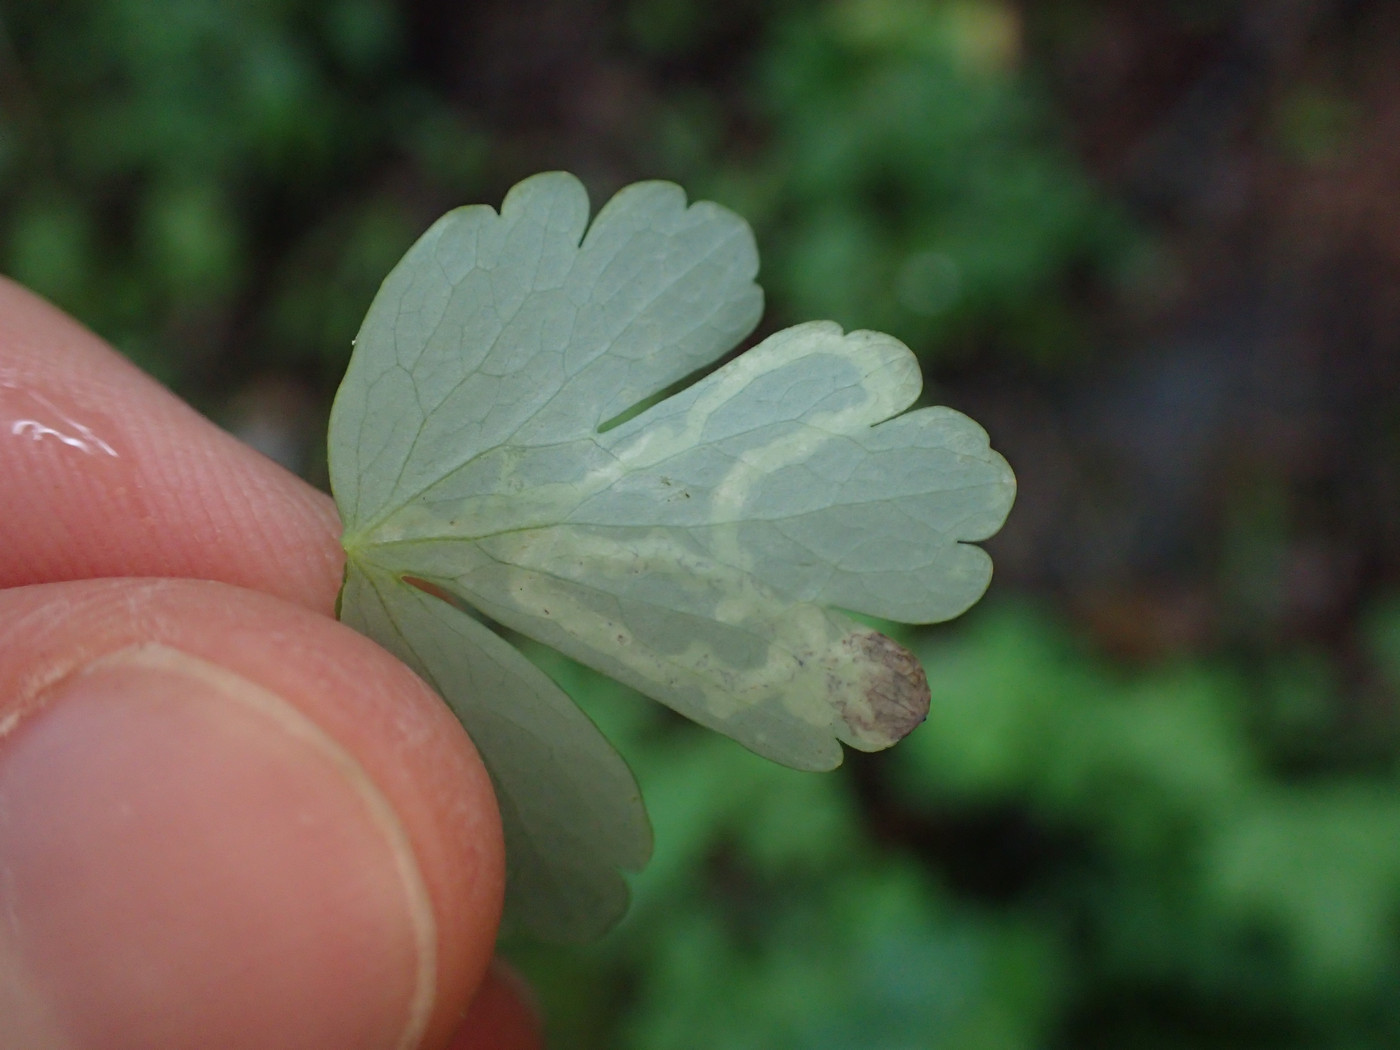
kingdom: Animalia
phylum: Arthropoda
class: Insecta
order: Diptera
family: Agromyzidae
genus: Phytomyza
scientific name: Phytomyza
